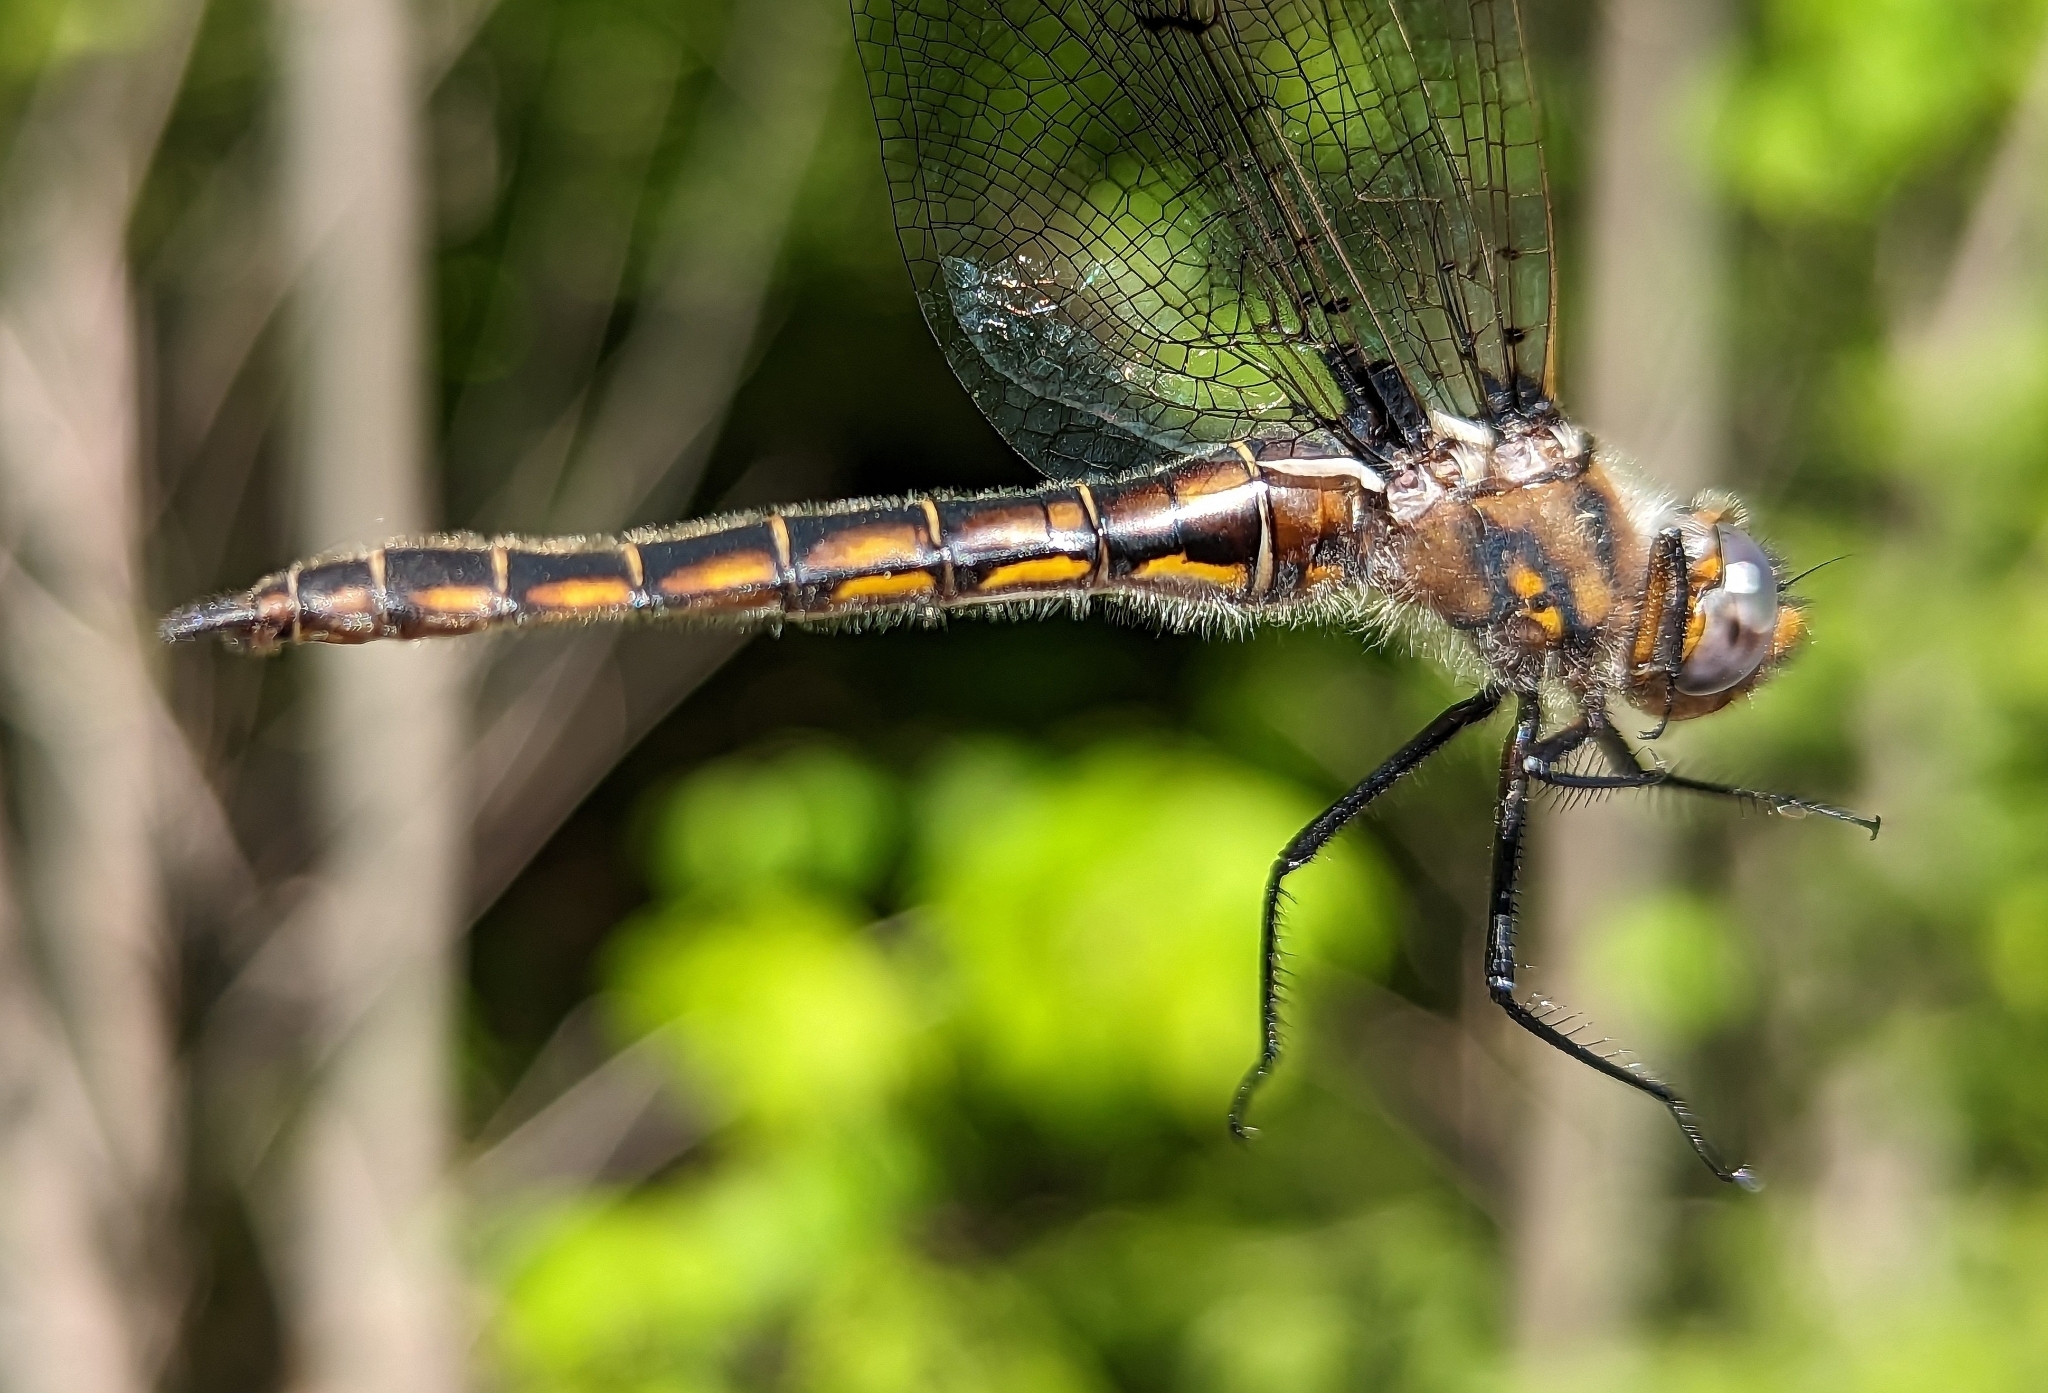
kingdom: Animalia
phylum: Arthropoda
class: Insecta
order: Odonata
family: Corduliidae
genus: Epitheca
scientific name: Epitheca canis
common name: Beaverpond baskettail
